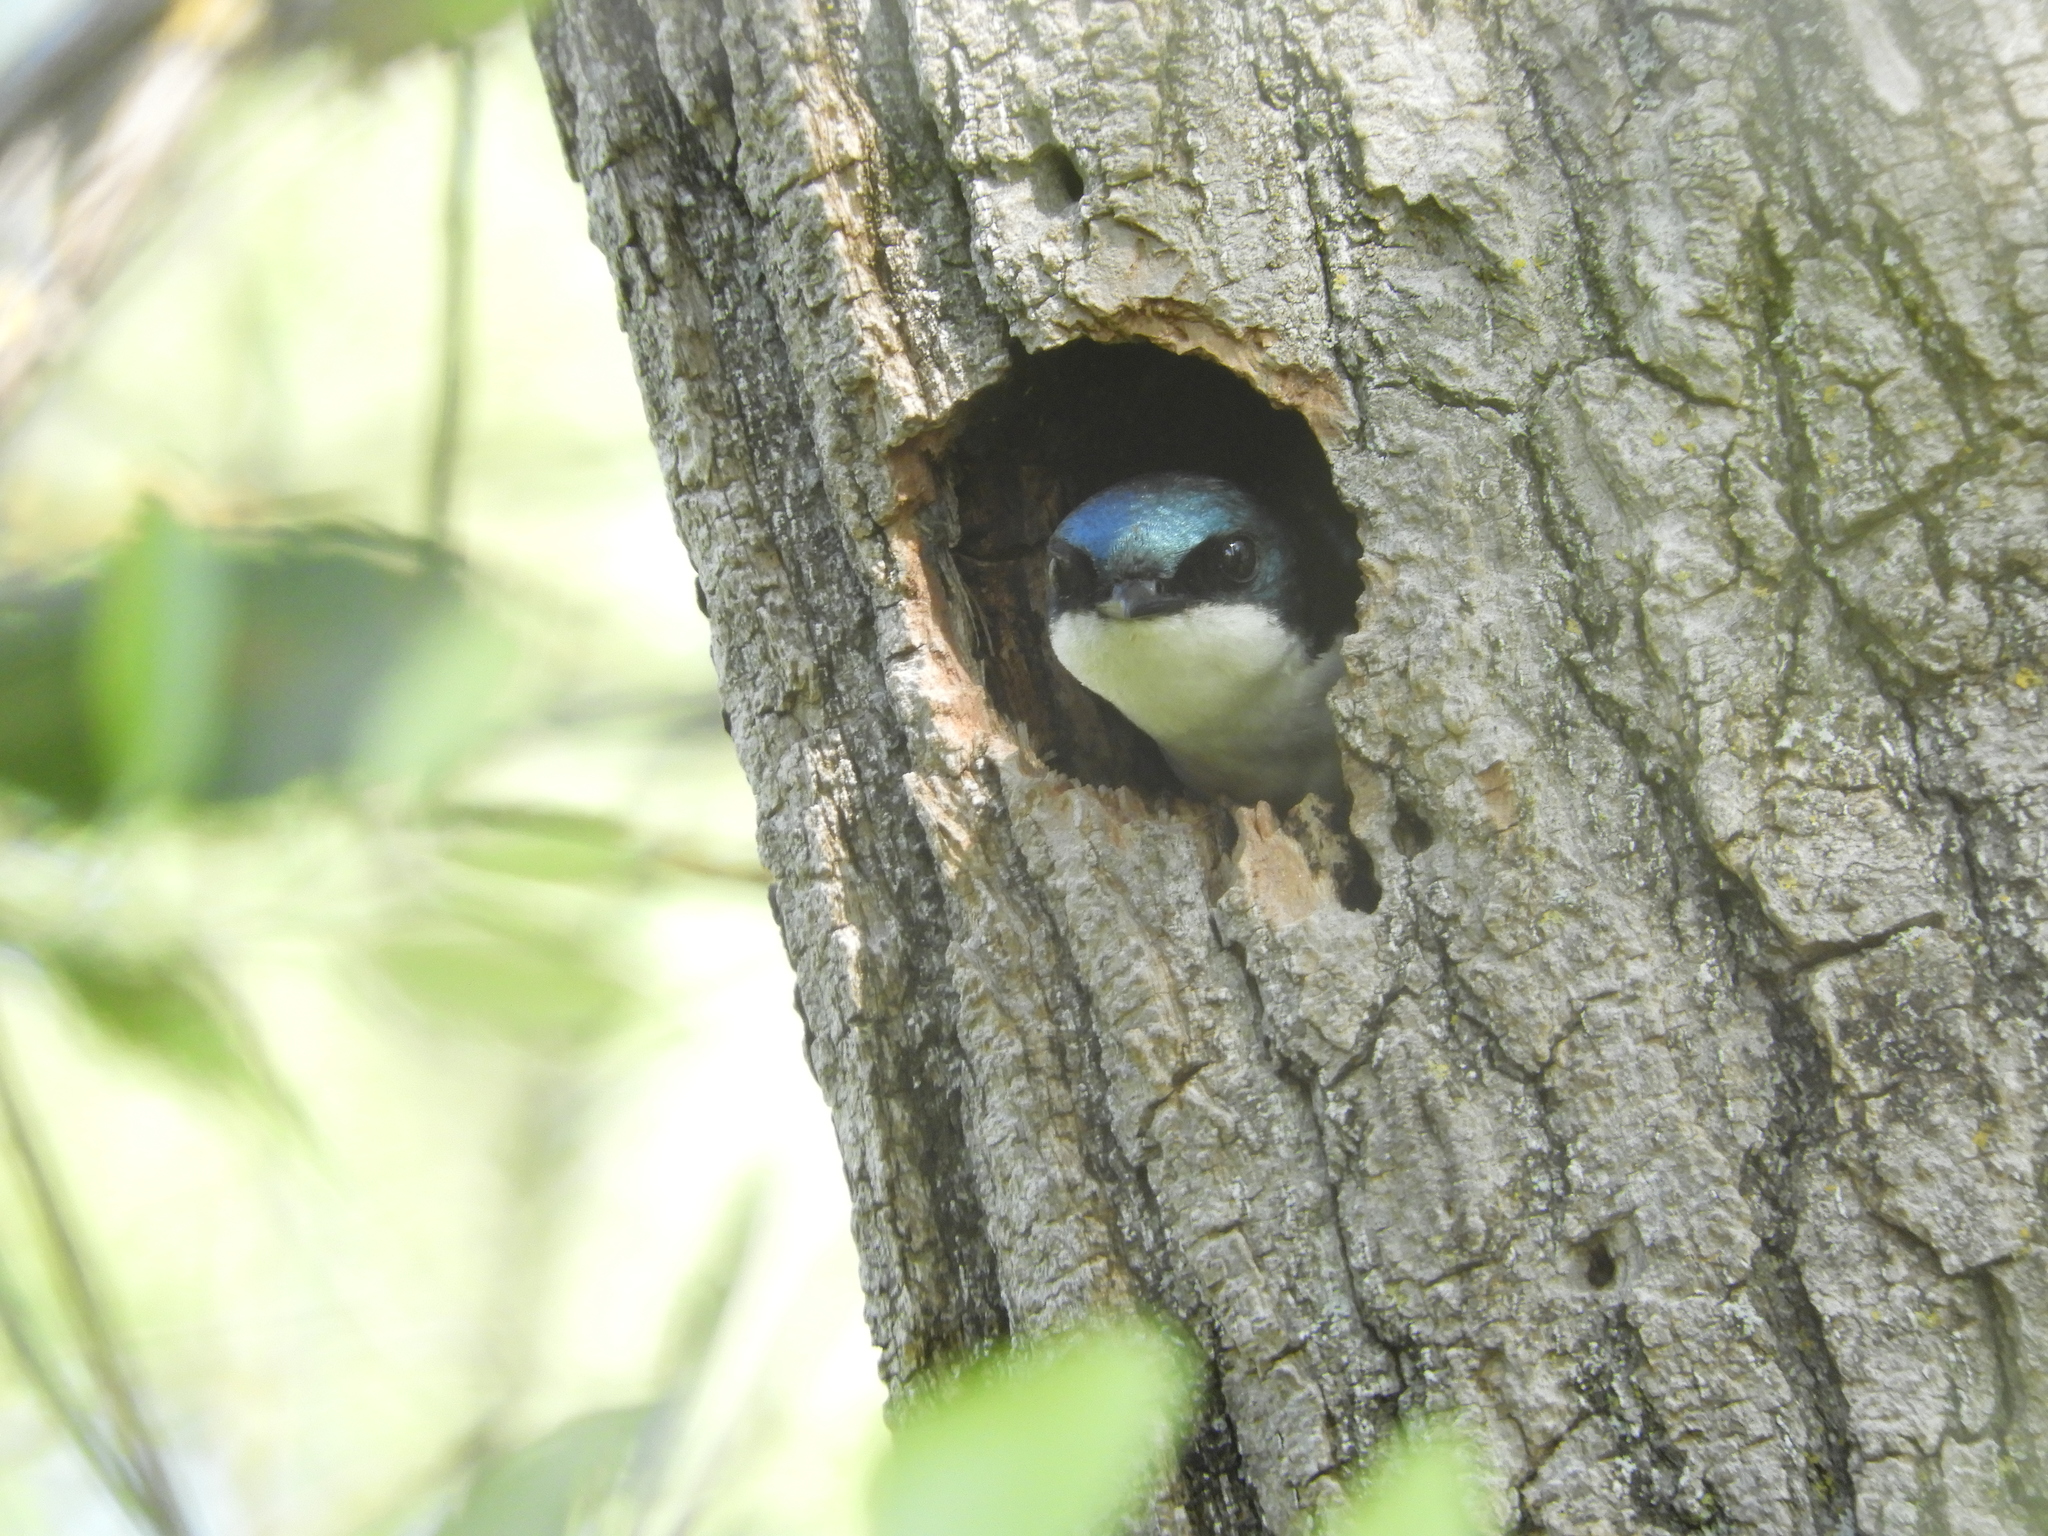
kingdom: Animalia
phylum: Chordata
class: Aves
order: Passeriformes
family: Hirundinidae
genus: Tachycineta
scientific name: Tachycineta bicolor
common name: Tree swallow
